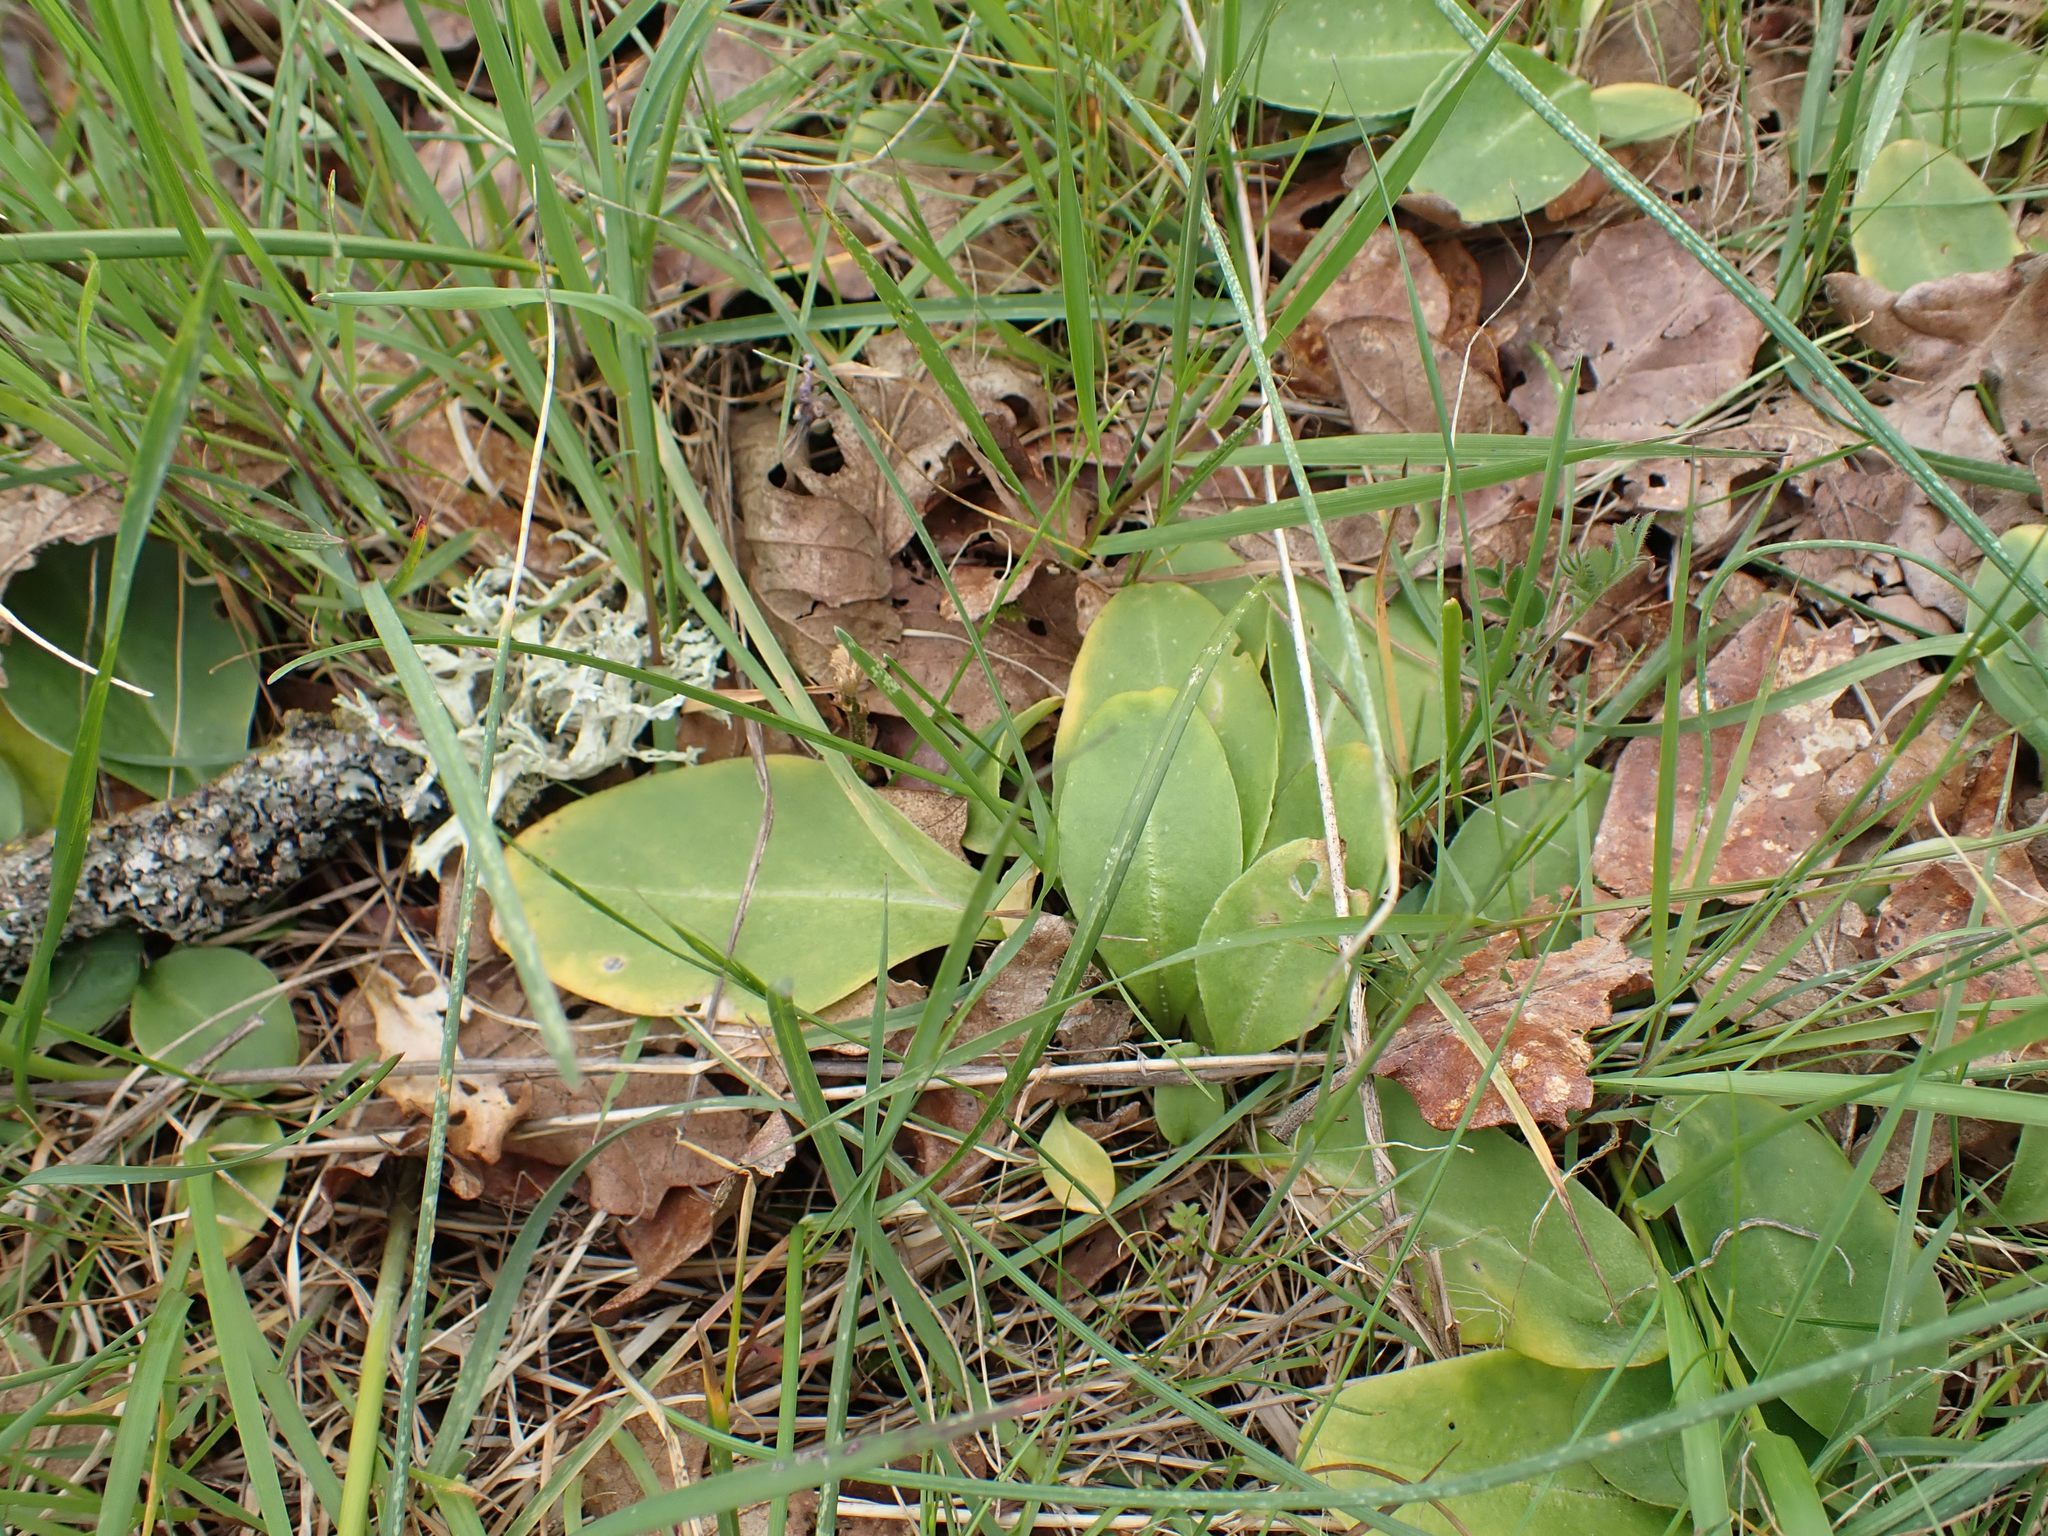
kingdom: Plantae
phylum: Tracheophyta
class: Magnoliopsida
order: Ericales
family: Primulaceae
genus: Dodecatheon
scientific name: Dodecatheon hendersonii
